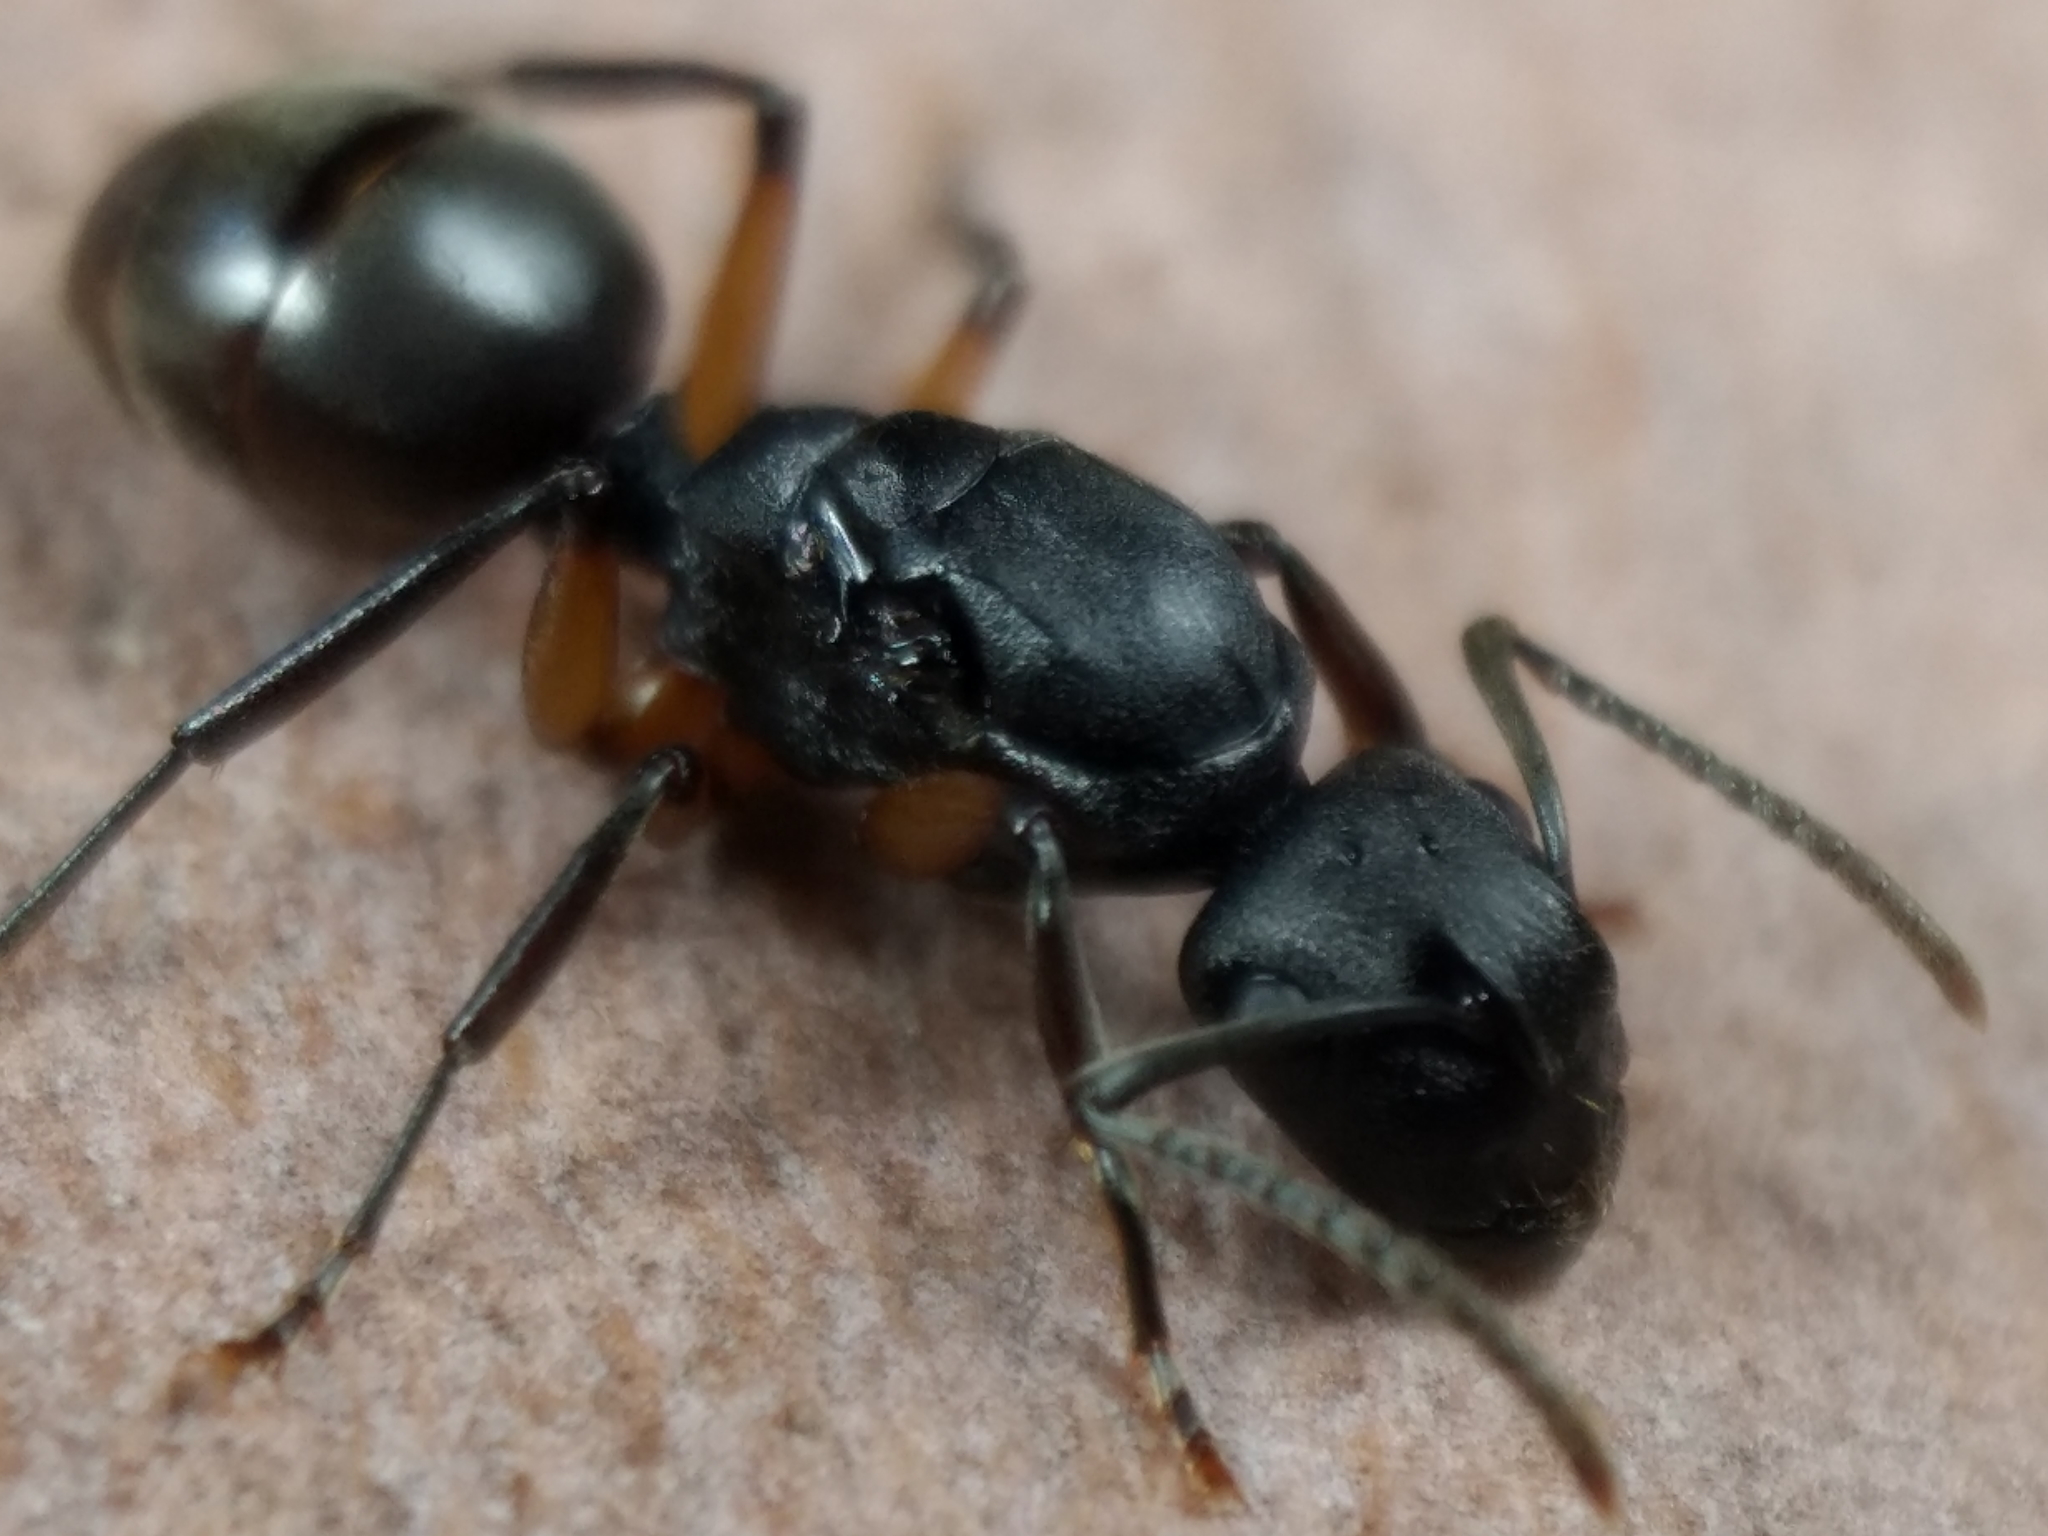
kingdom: Animalia
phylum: Arthropoda
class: Insecta
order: Hymenoptera
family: Formicidae
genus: Polyrhachis
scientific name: Polyrhachis femorata
